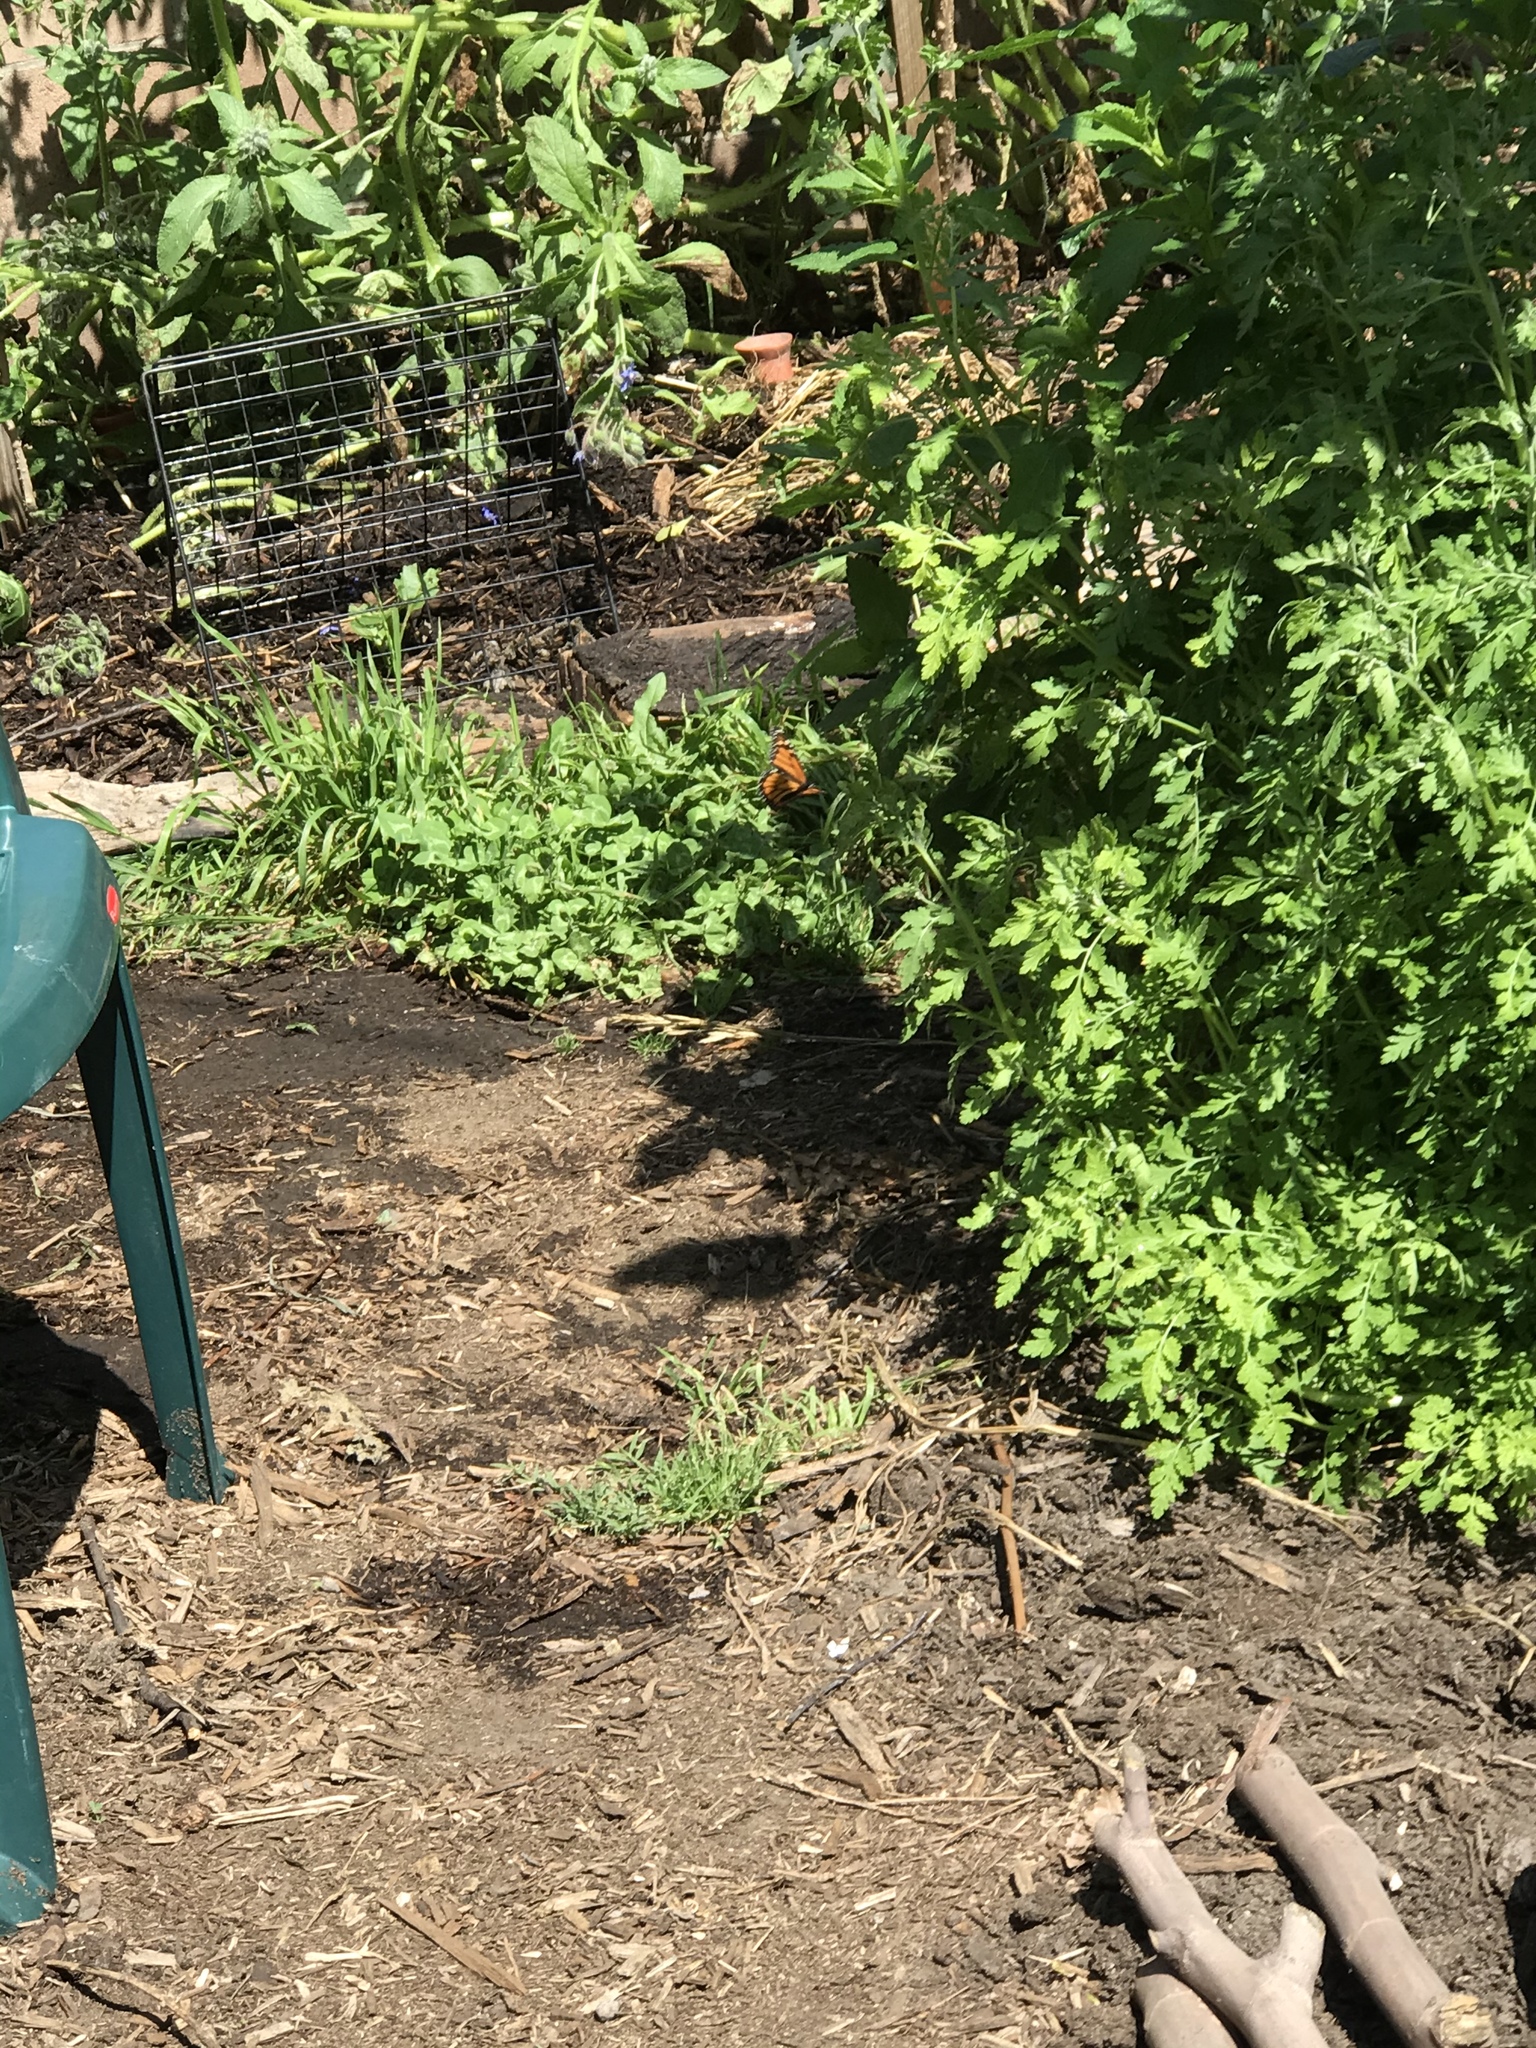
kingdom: Animalia
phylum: Arthropoda
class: Insecta
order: Lepidoptera
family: Nymphalidae
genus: Danaus
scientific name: Danaus plexippus
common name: Monarch
